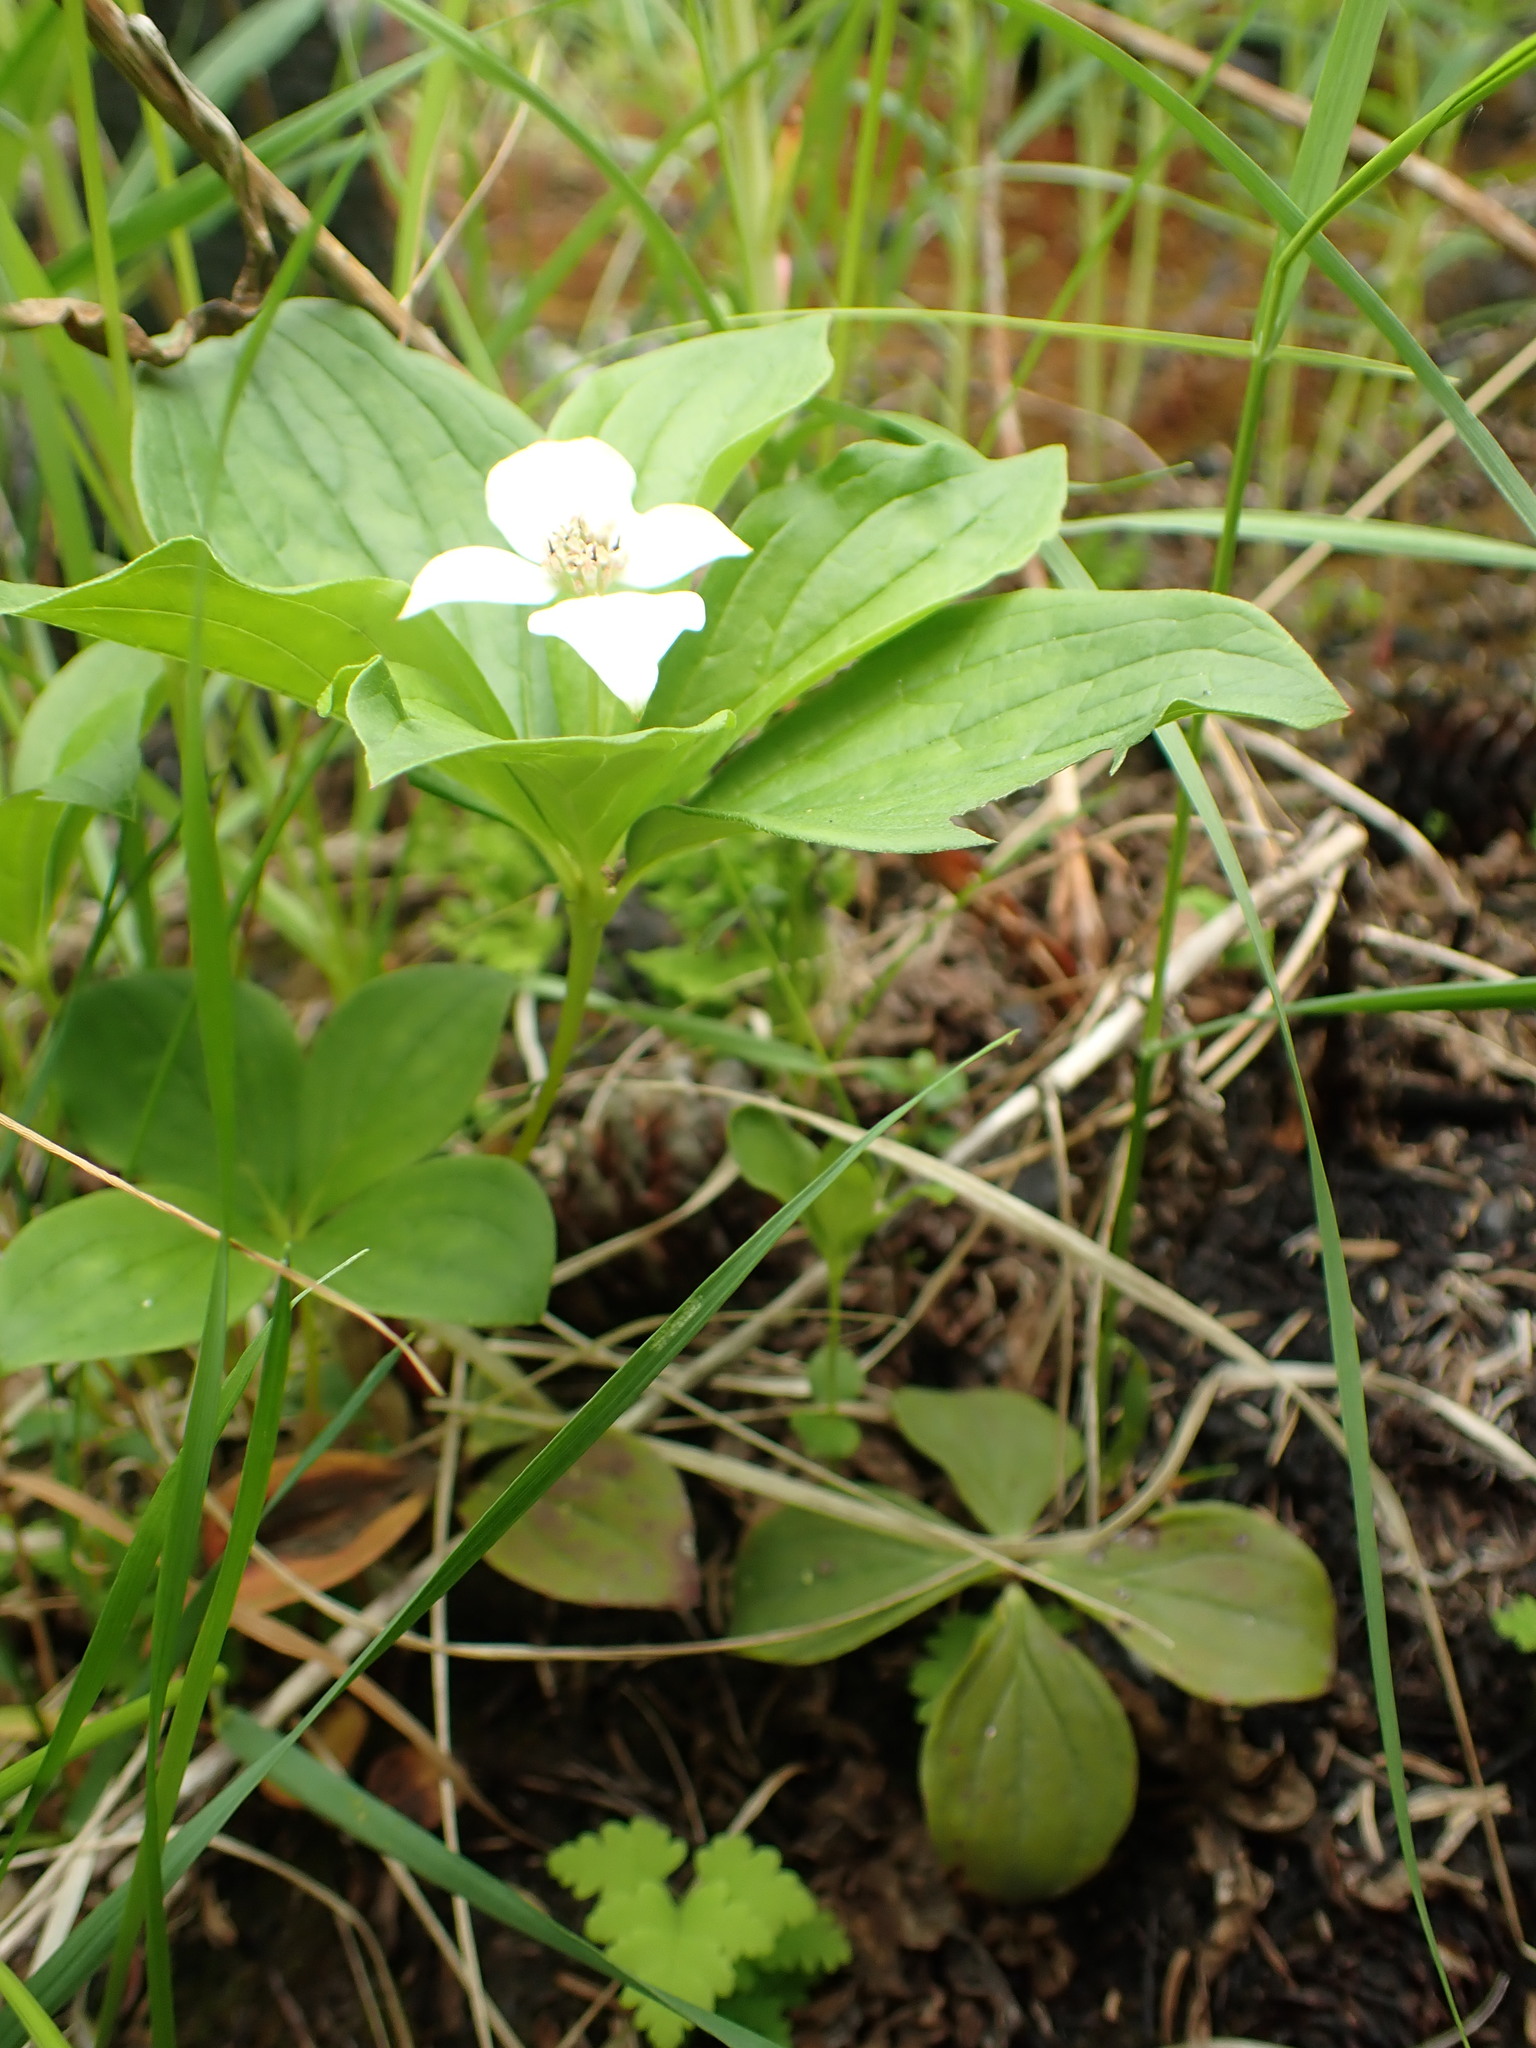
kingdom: Plantae
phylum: Tracheophyta
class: Magnoliopsida
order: Cornales
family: Cornaceae
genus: Cornus
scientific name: Cornus canadensis
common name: Creeping dogwood
